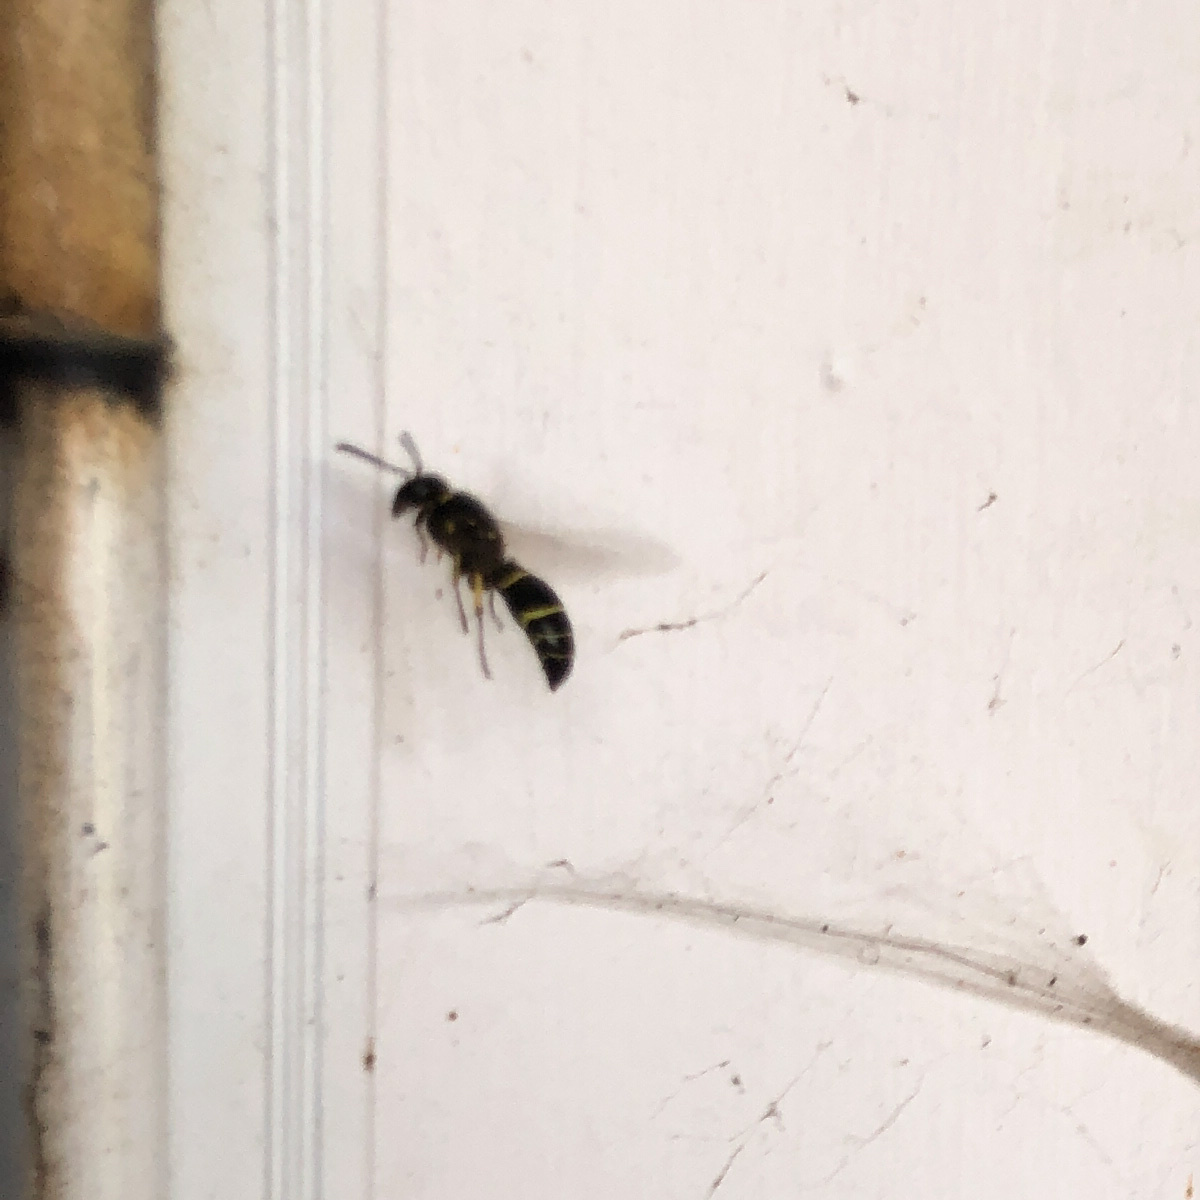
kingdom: Animalia
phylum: Arthropoda
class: Insecta
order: Hymenoptera
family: Vespidae
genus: Ancistrocerus
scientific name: Ancistrocerus
